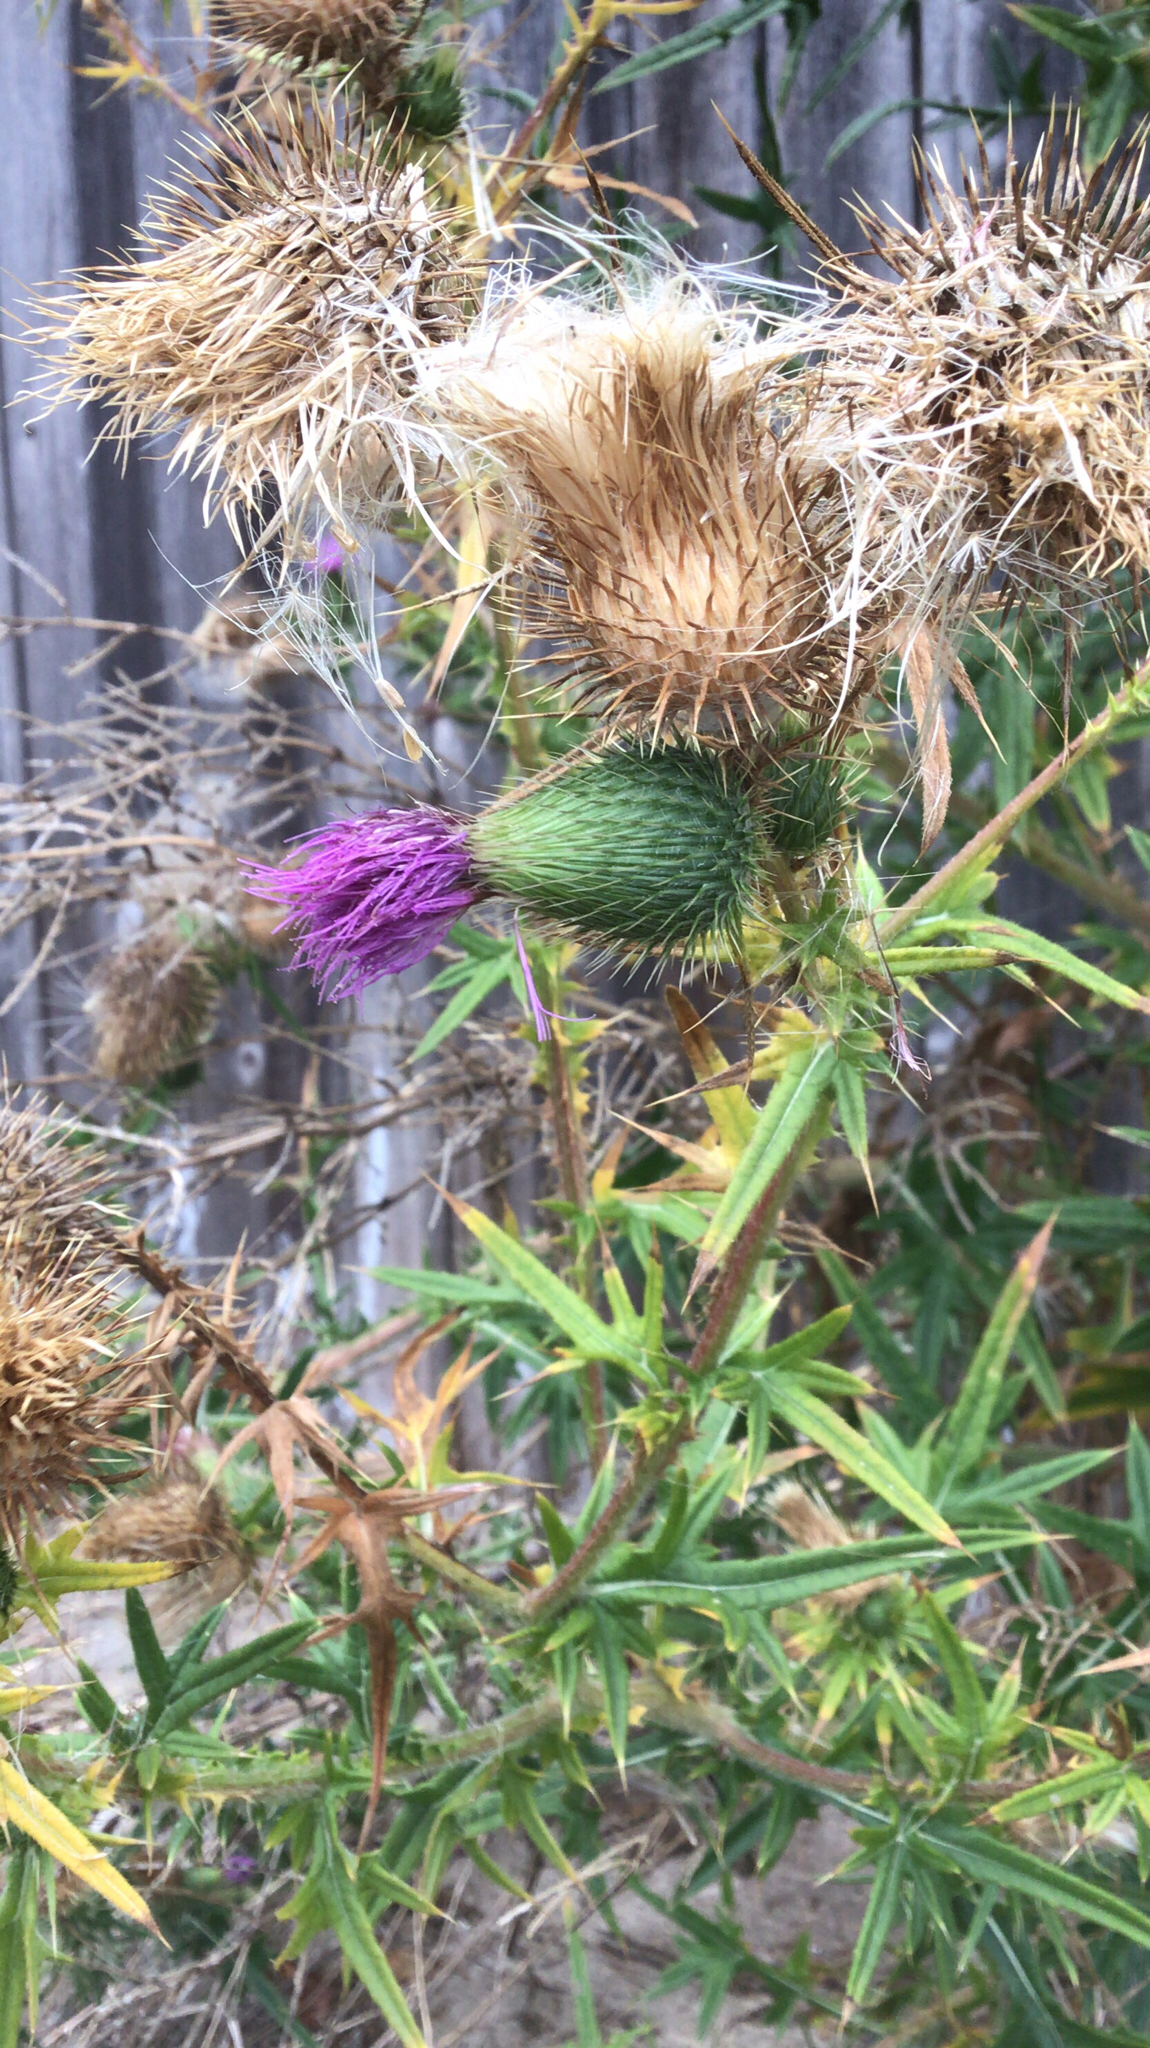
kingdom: Plantae
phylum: Tracheophyta
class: Magnoliopsida
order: Asterales
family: Asteraceae
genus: Cirsium
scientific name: Cirsium vulgare
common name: Bull thistle
